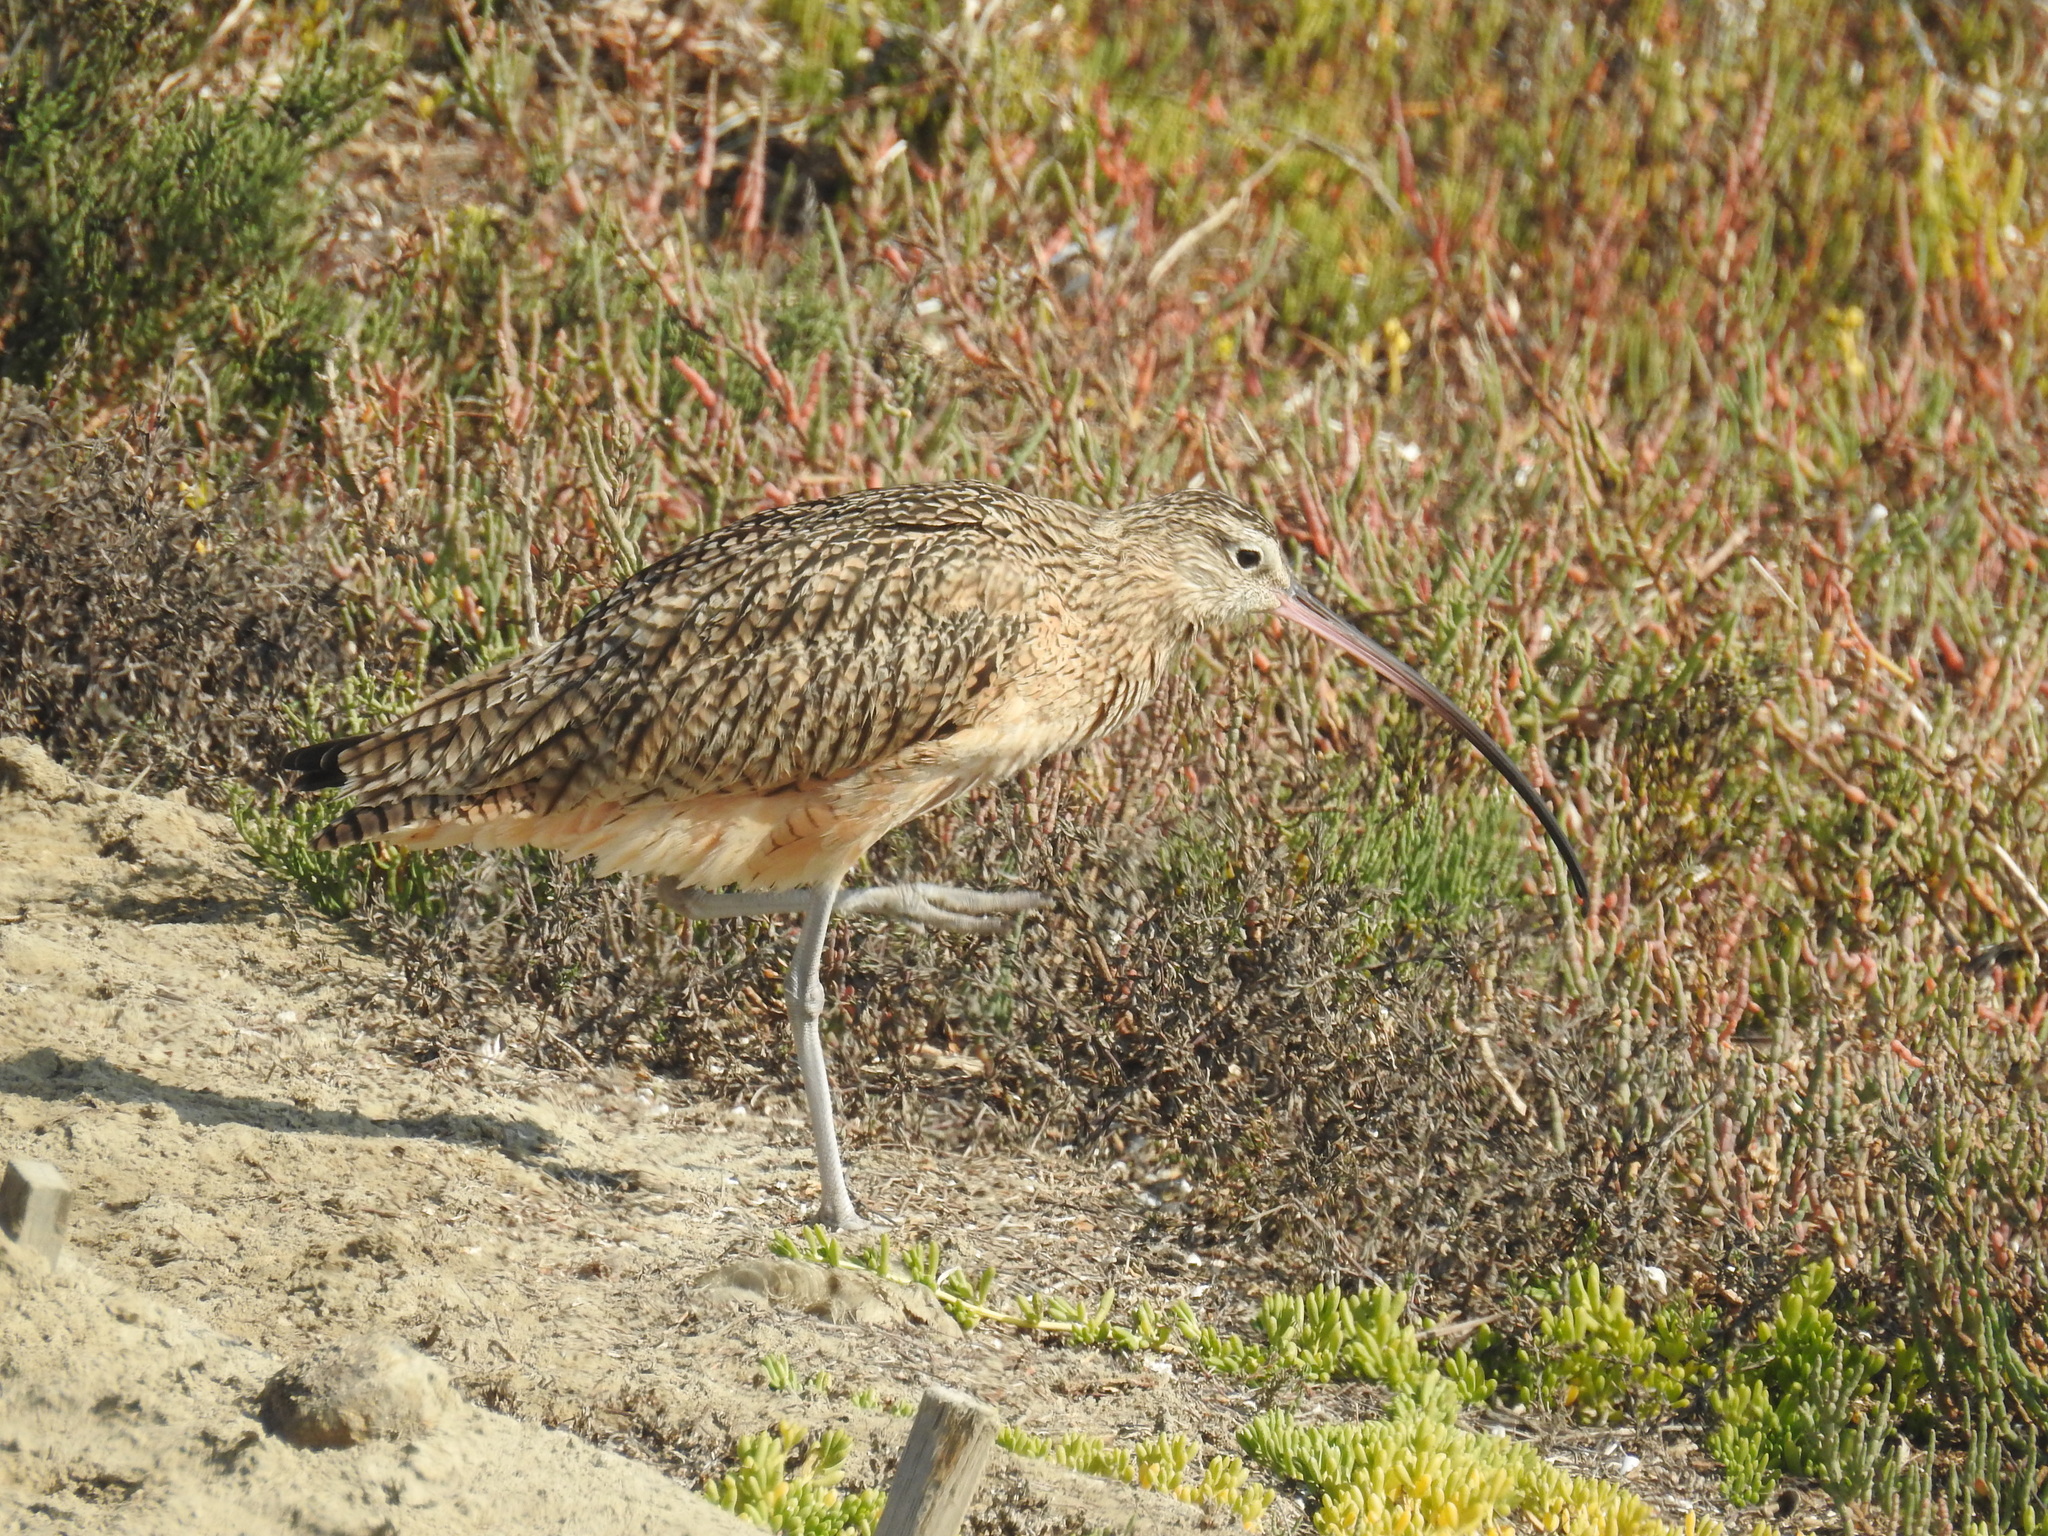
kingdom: Animalia
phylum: Chordata
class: Aves
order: Charadriiformes
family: Scolopacidae
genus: Numenius
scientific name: Numenius americanus
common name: Long-billed curlew
